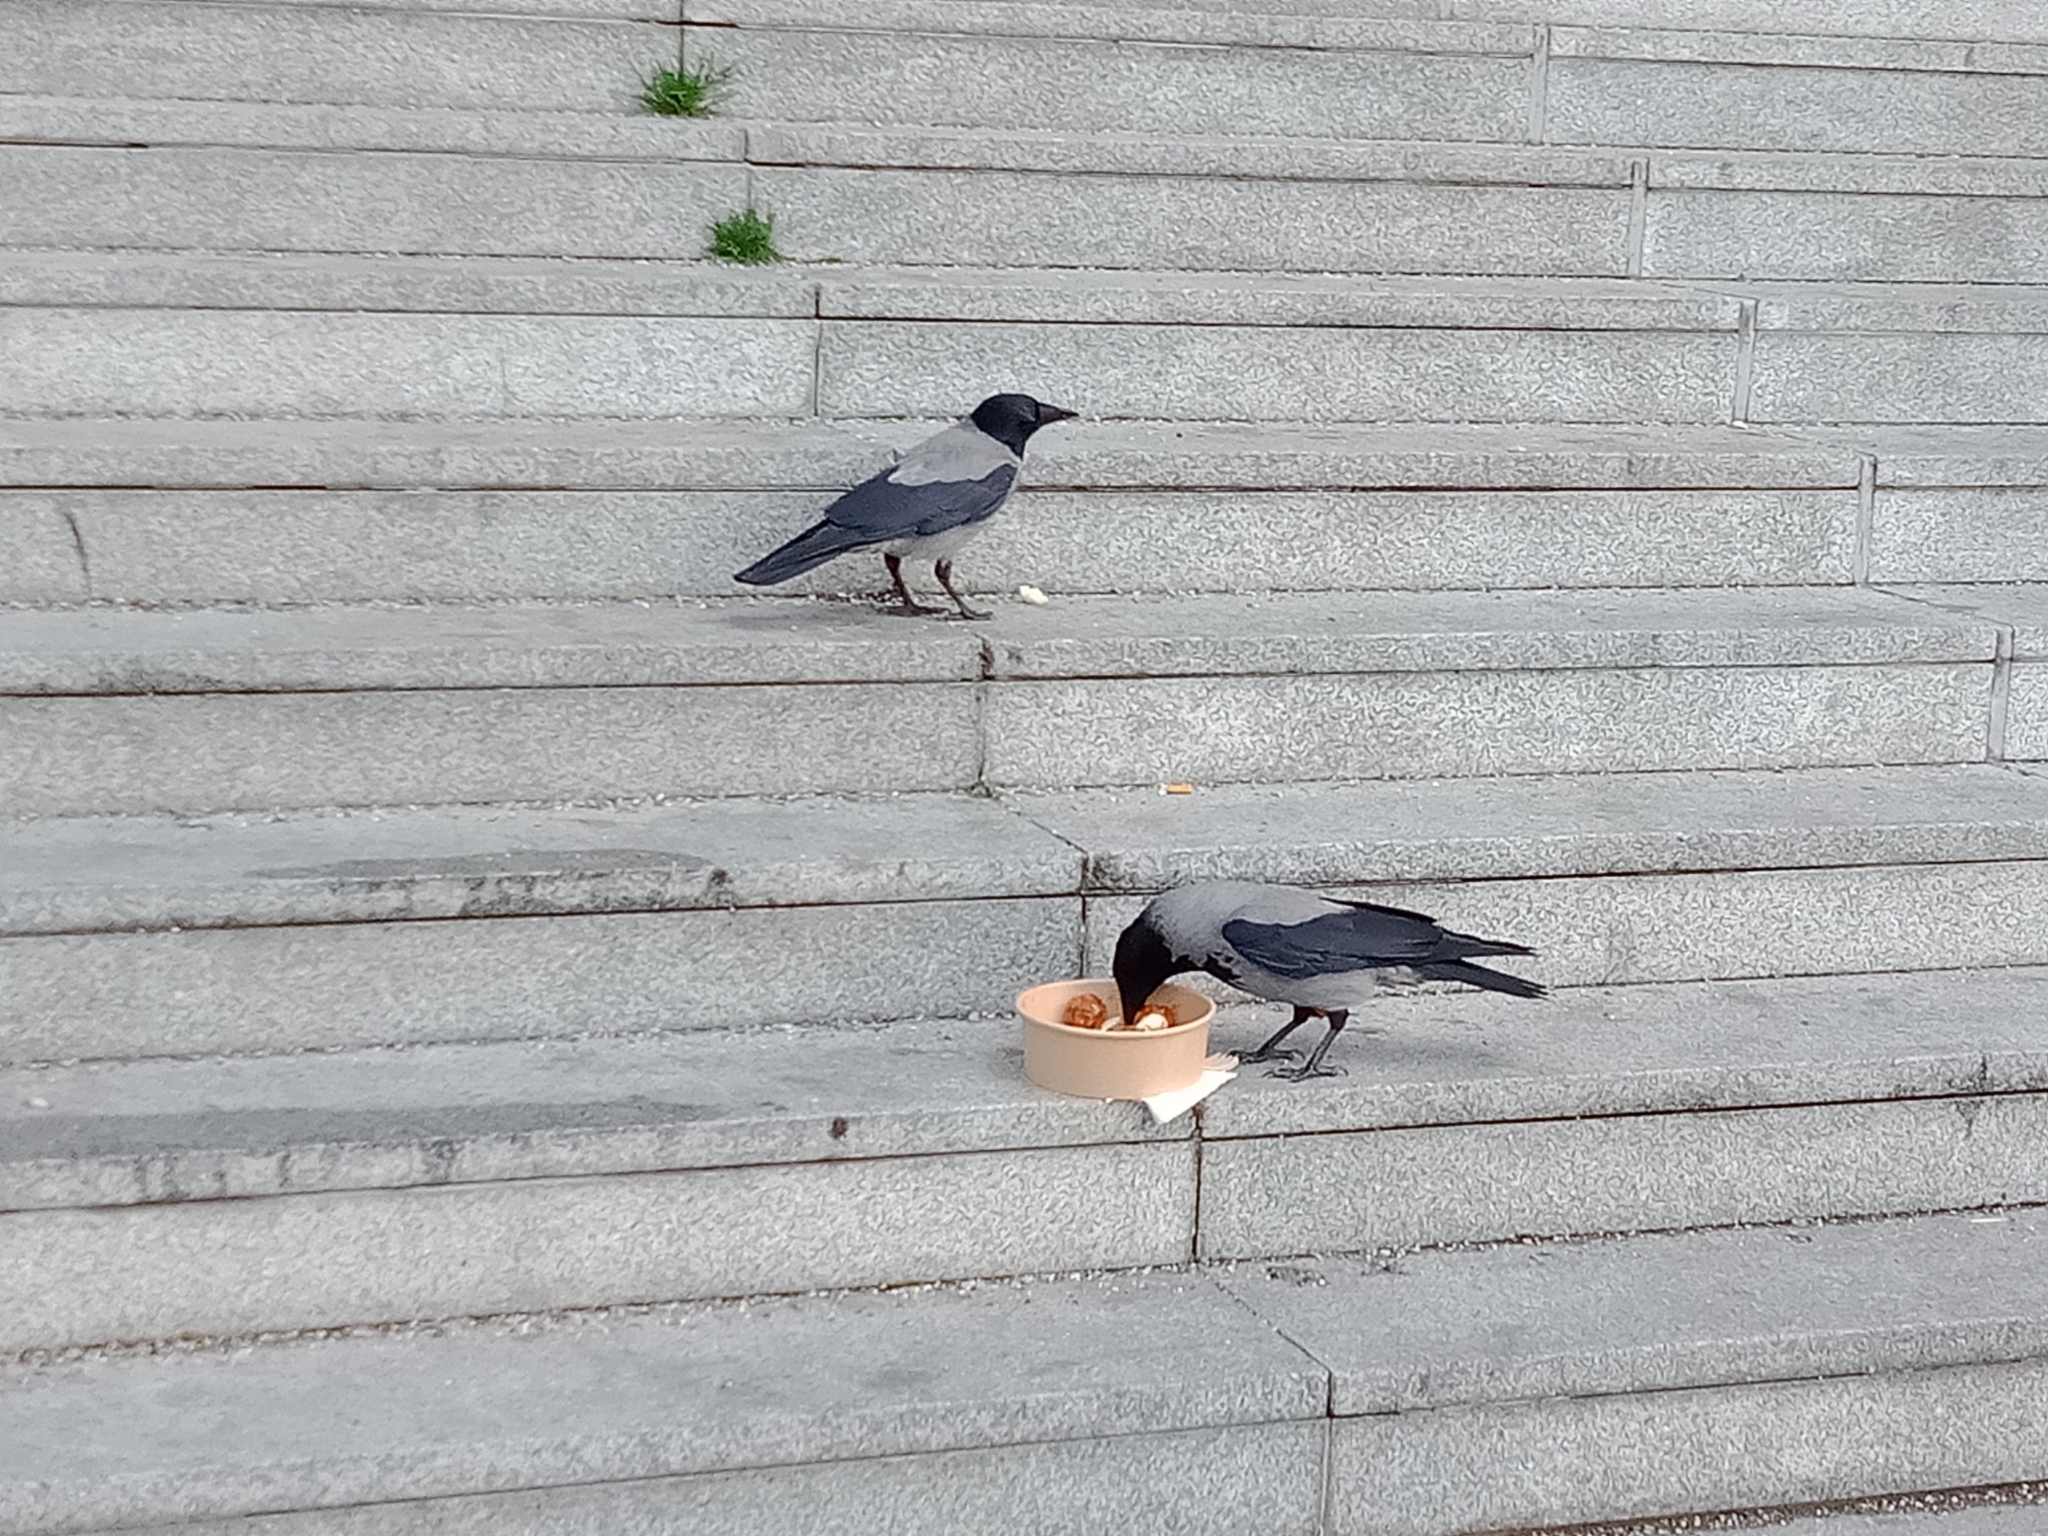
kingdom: Animalia
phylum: Chordata
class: Aves
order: Passeriformes
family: Corvidae
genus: Corvus
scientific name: Corvus cornix
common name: Hooded crow
